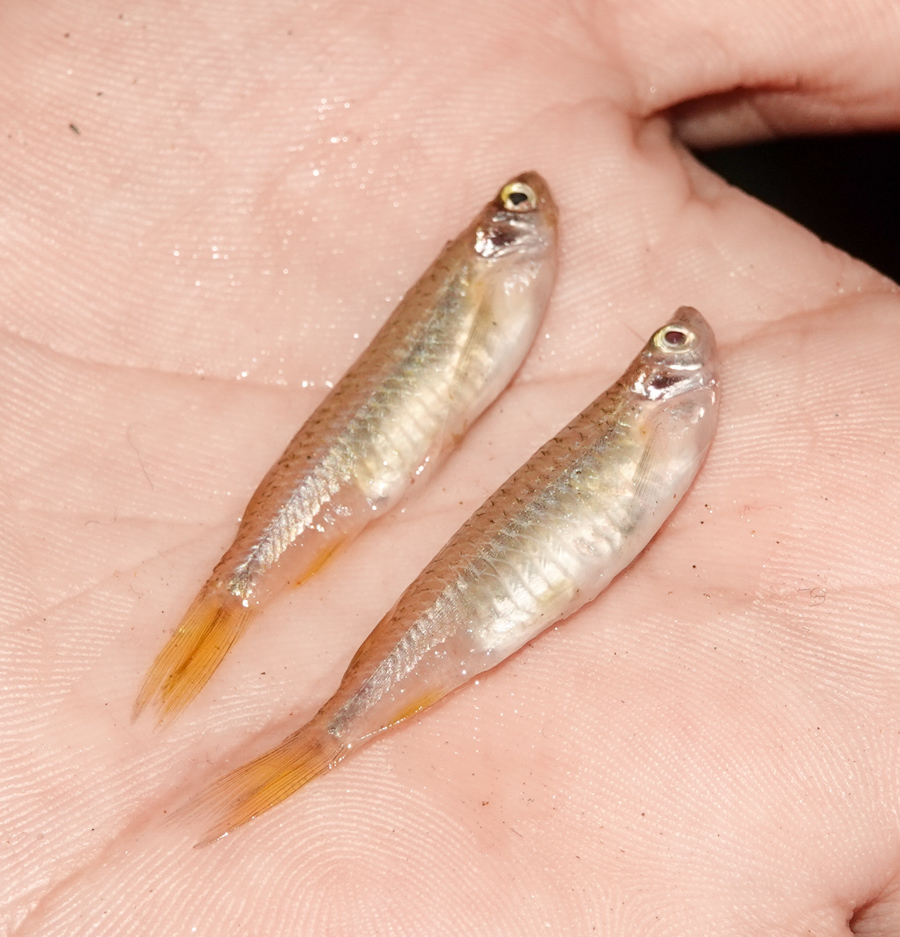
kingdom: Animalia
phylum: Chordata
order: Cypriniformes
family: Cyprinidae
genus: Esomus
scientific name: Esomus danrica
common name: Flying barb
